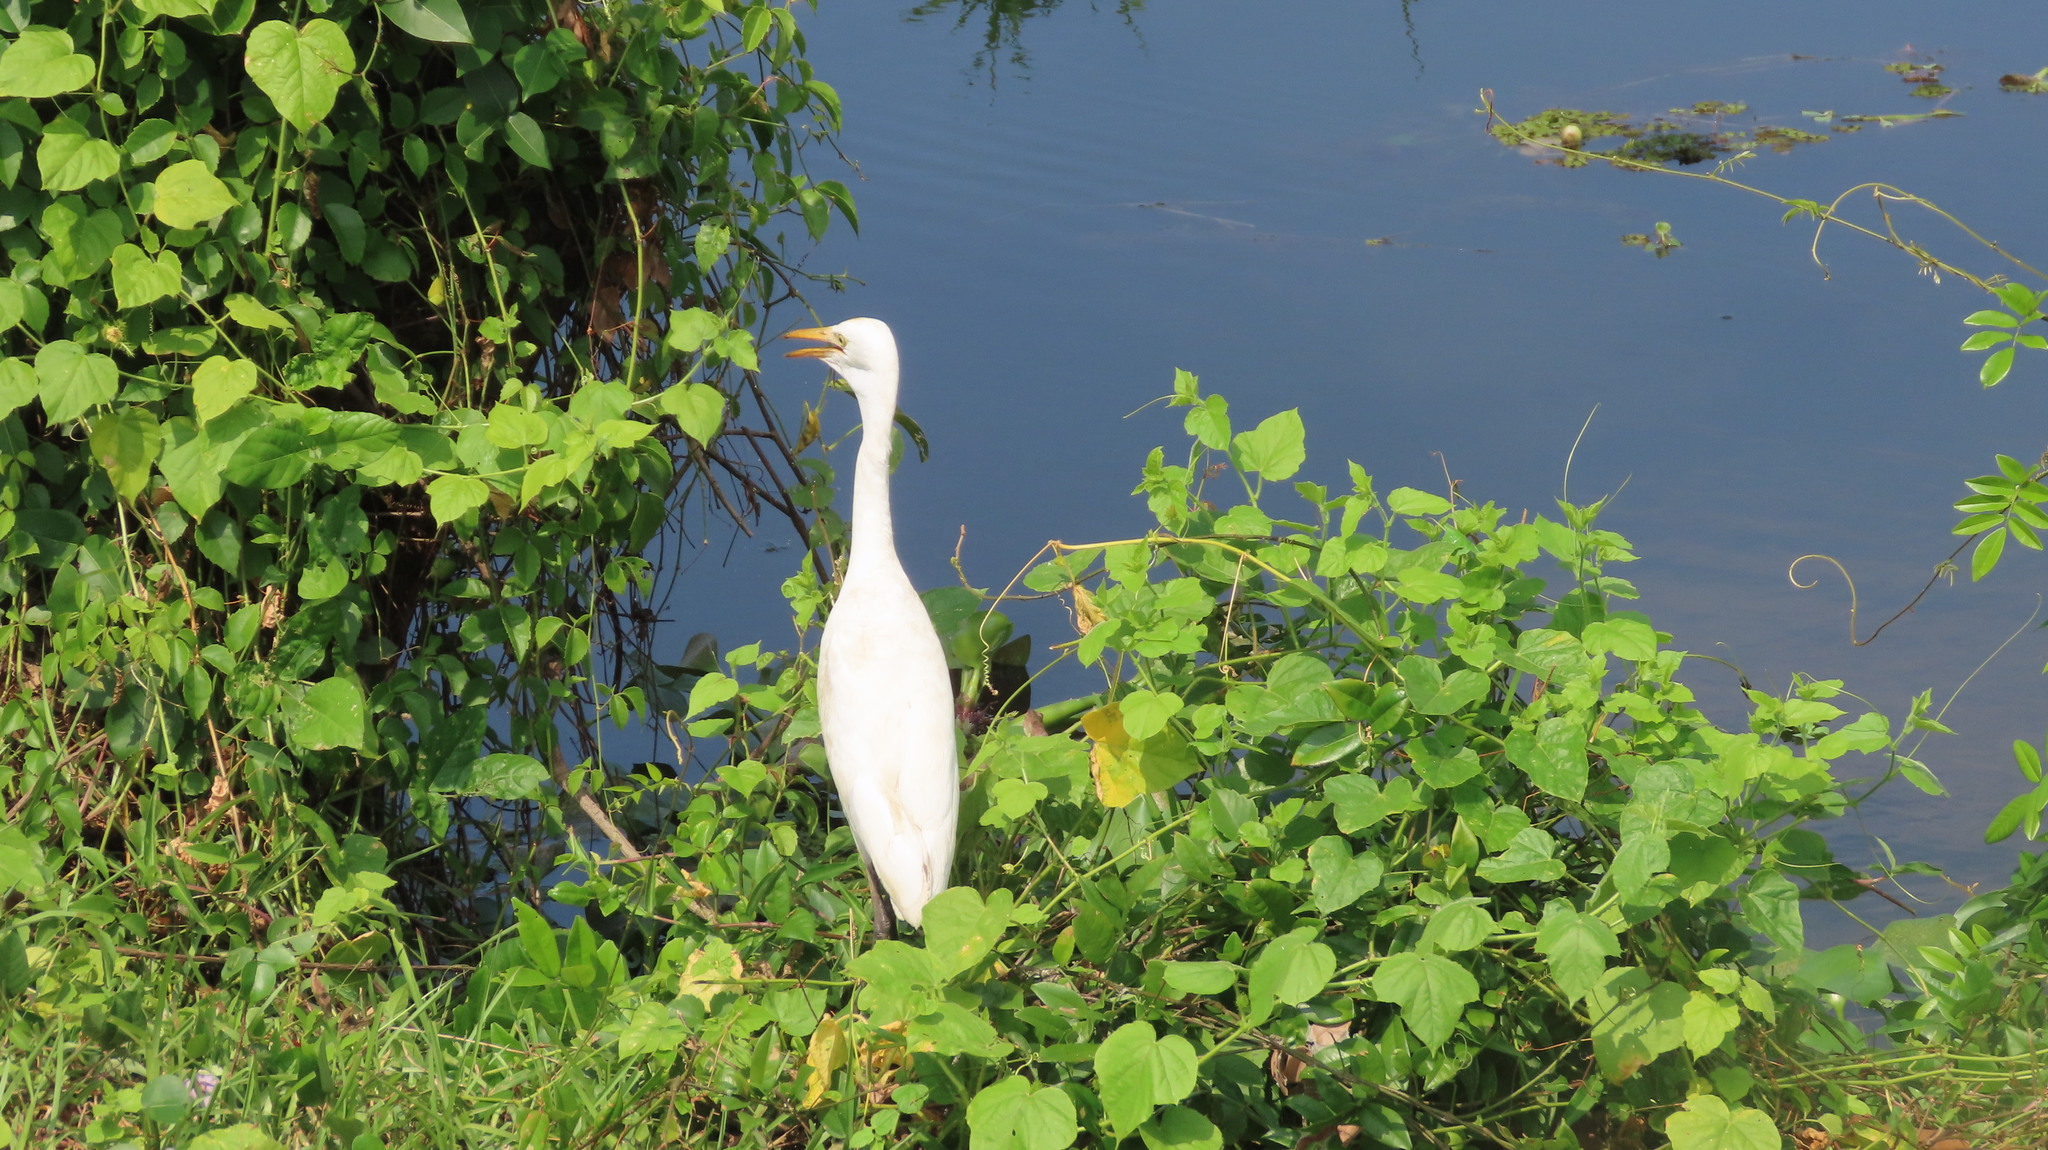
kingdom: Animalia
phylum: Chordata
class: Aves
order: Pelecaniformes
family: Ardeidae
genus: Bubulcus
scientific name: Bubulcus coromandus
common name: Eastern cattle egret
